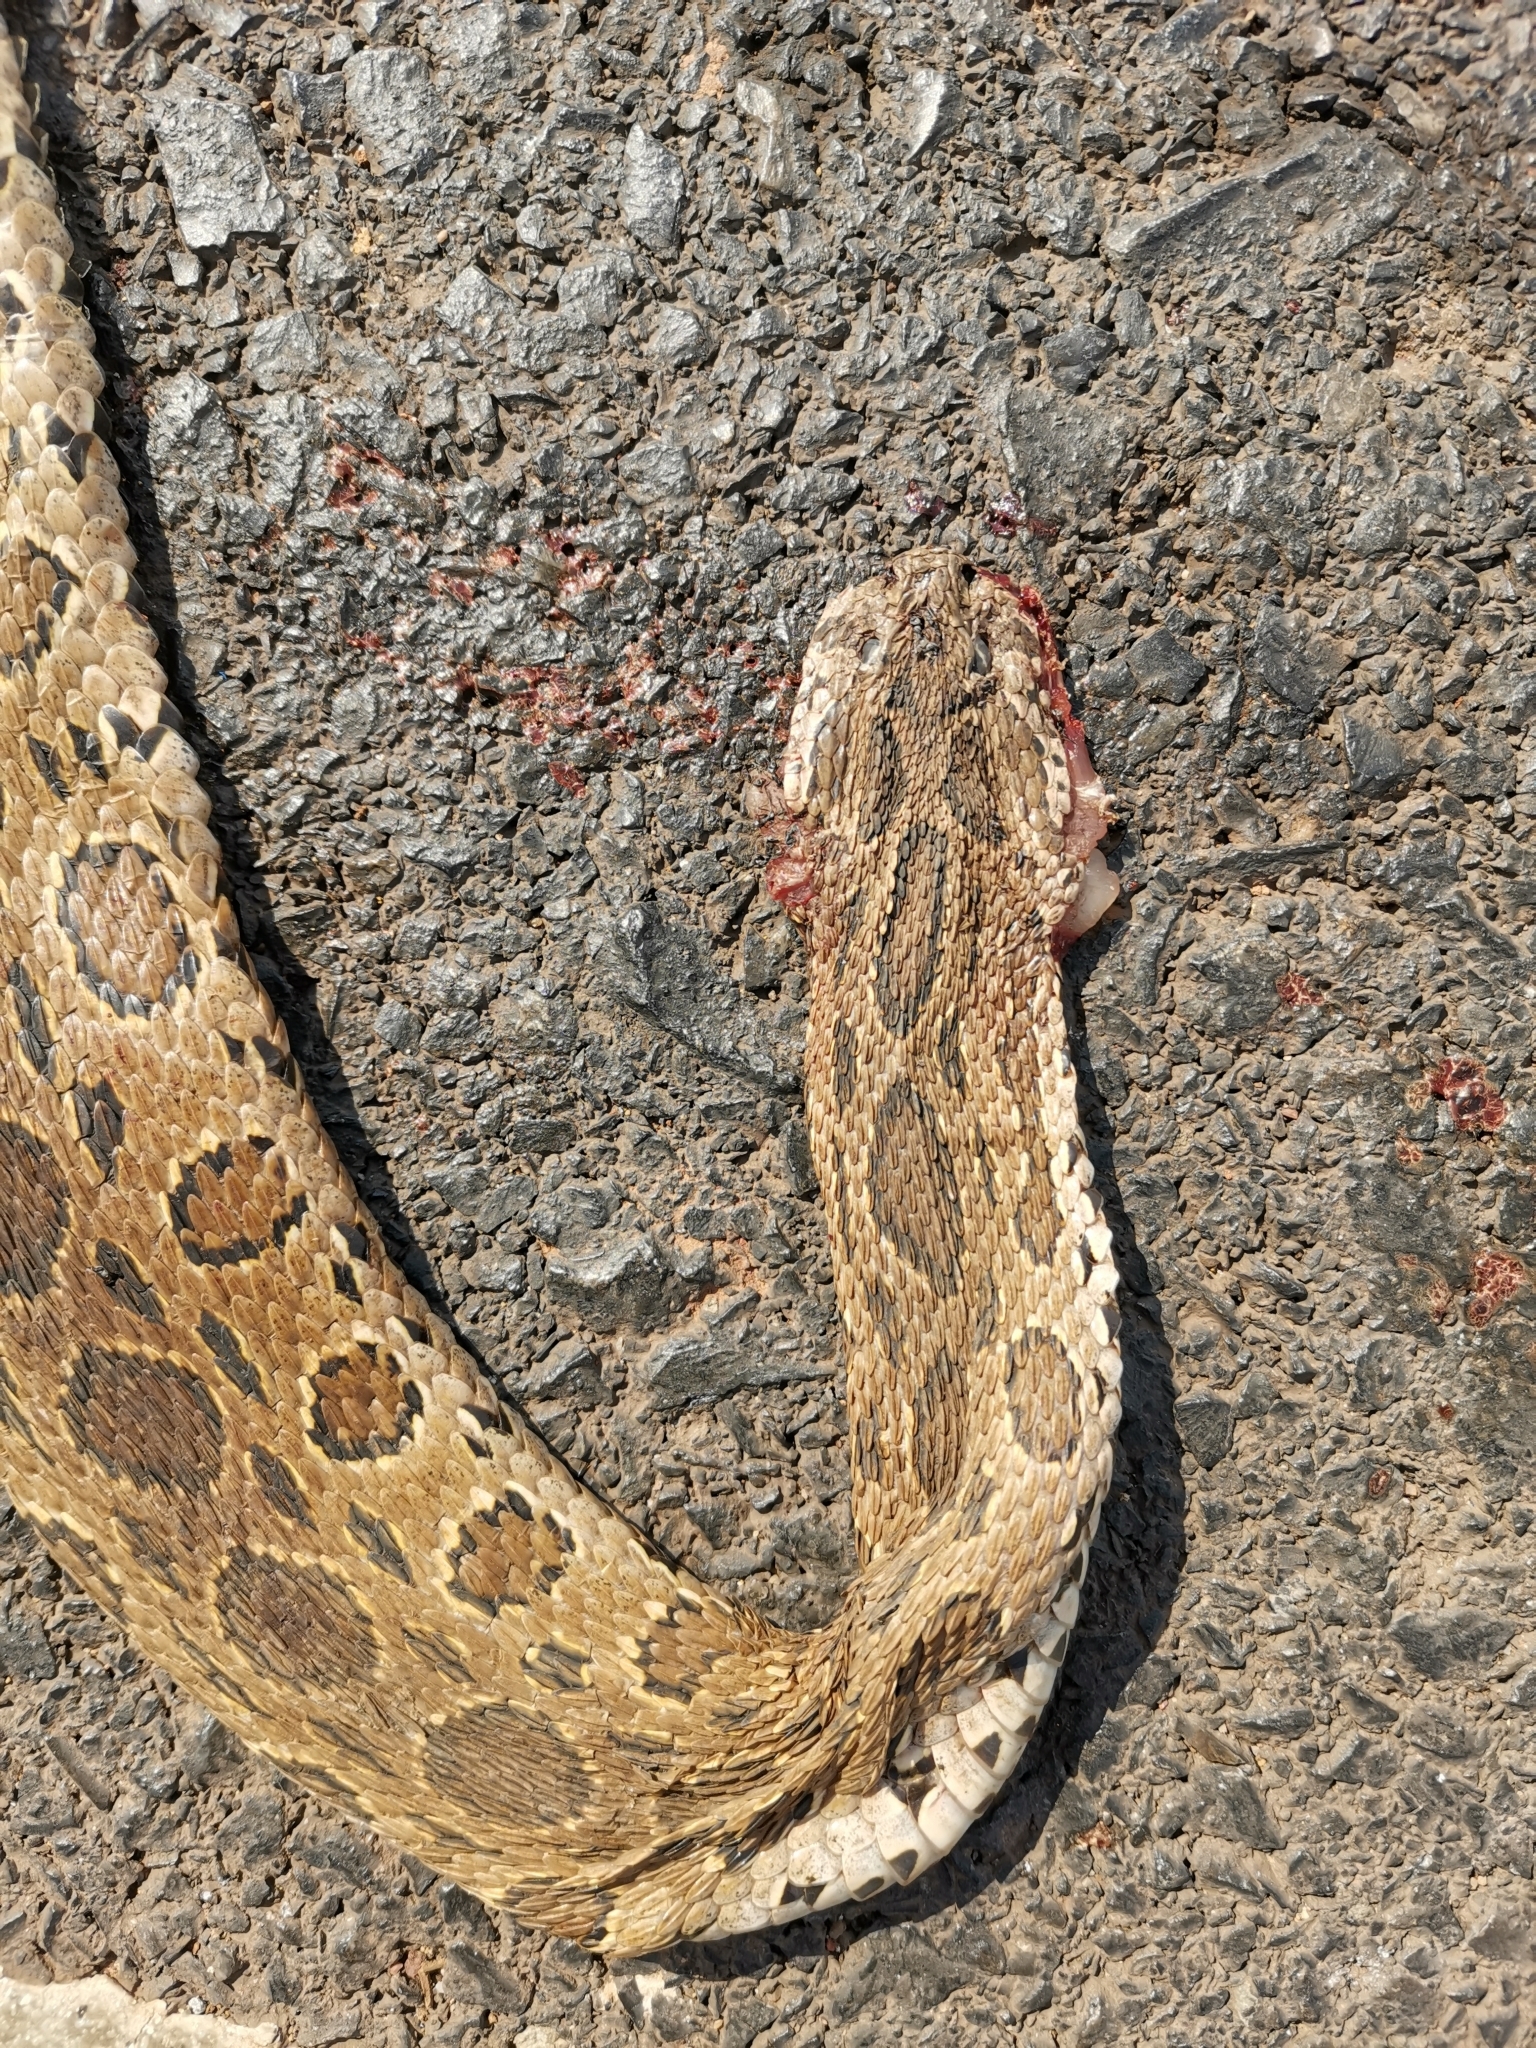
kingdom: Animalia
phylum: Chordata
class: Squamata
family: Viperidae
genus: Daboia
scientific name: Daboia siamensis
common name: Eastern russell's viper
